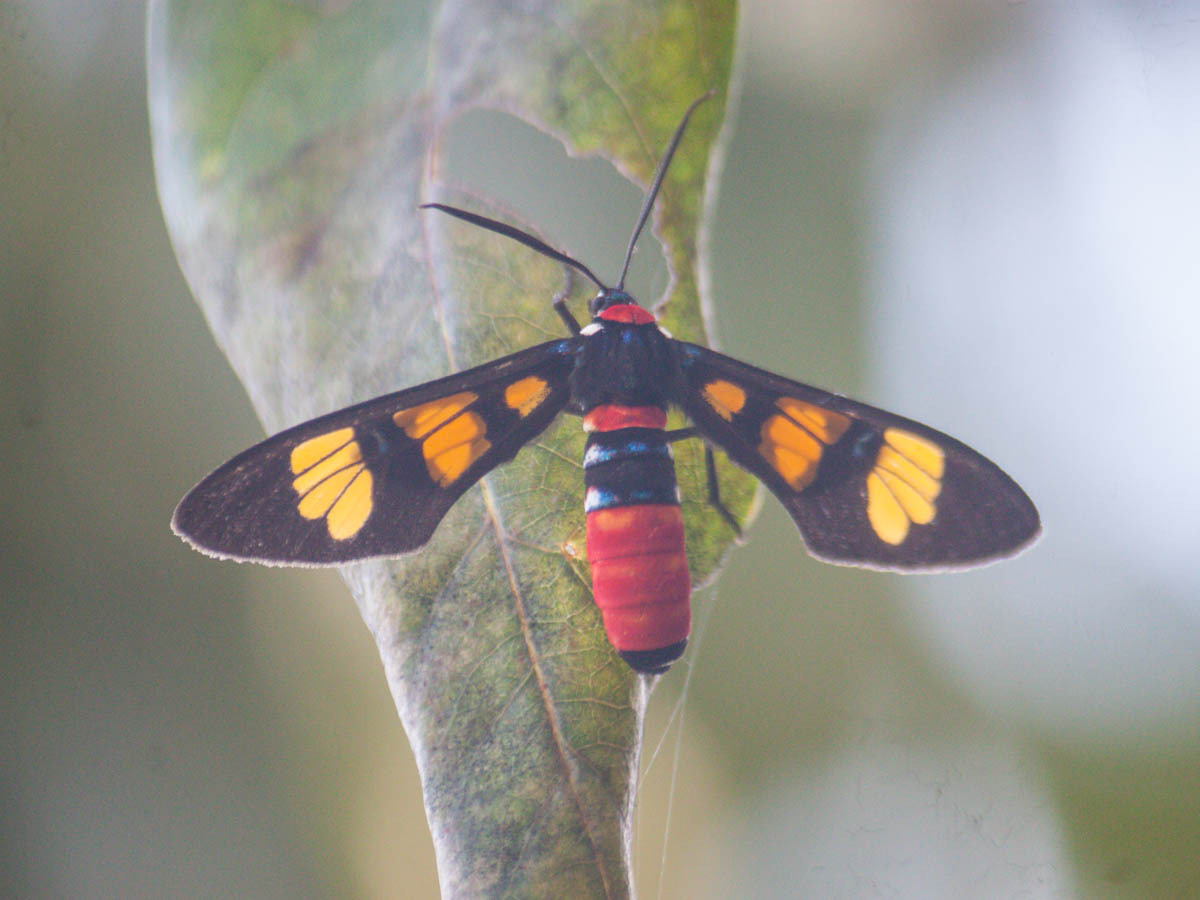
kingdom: Animalia
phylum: Arthropoda
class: Insecta
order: Lepidoptera
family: Erebidae
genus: Euchromia
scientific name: Euchromia polymena
